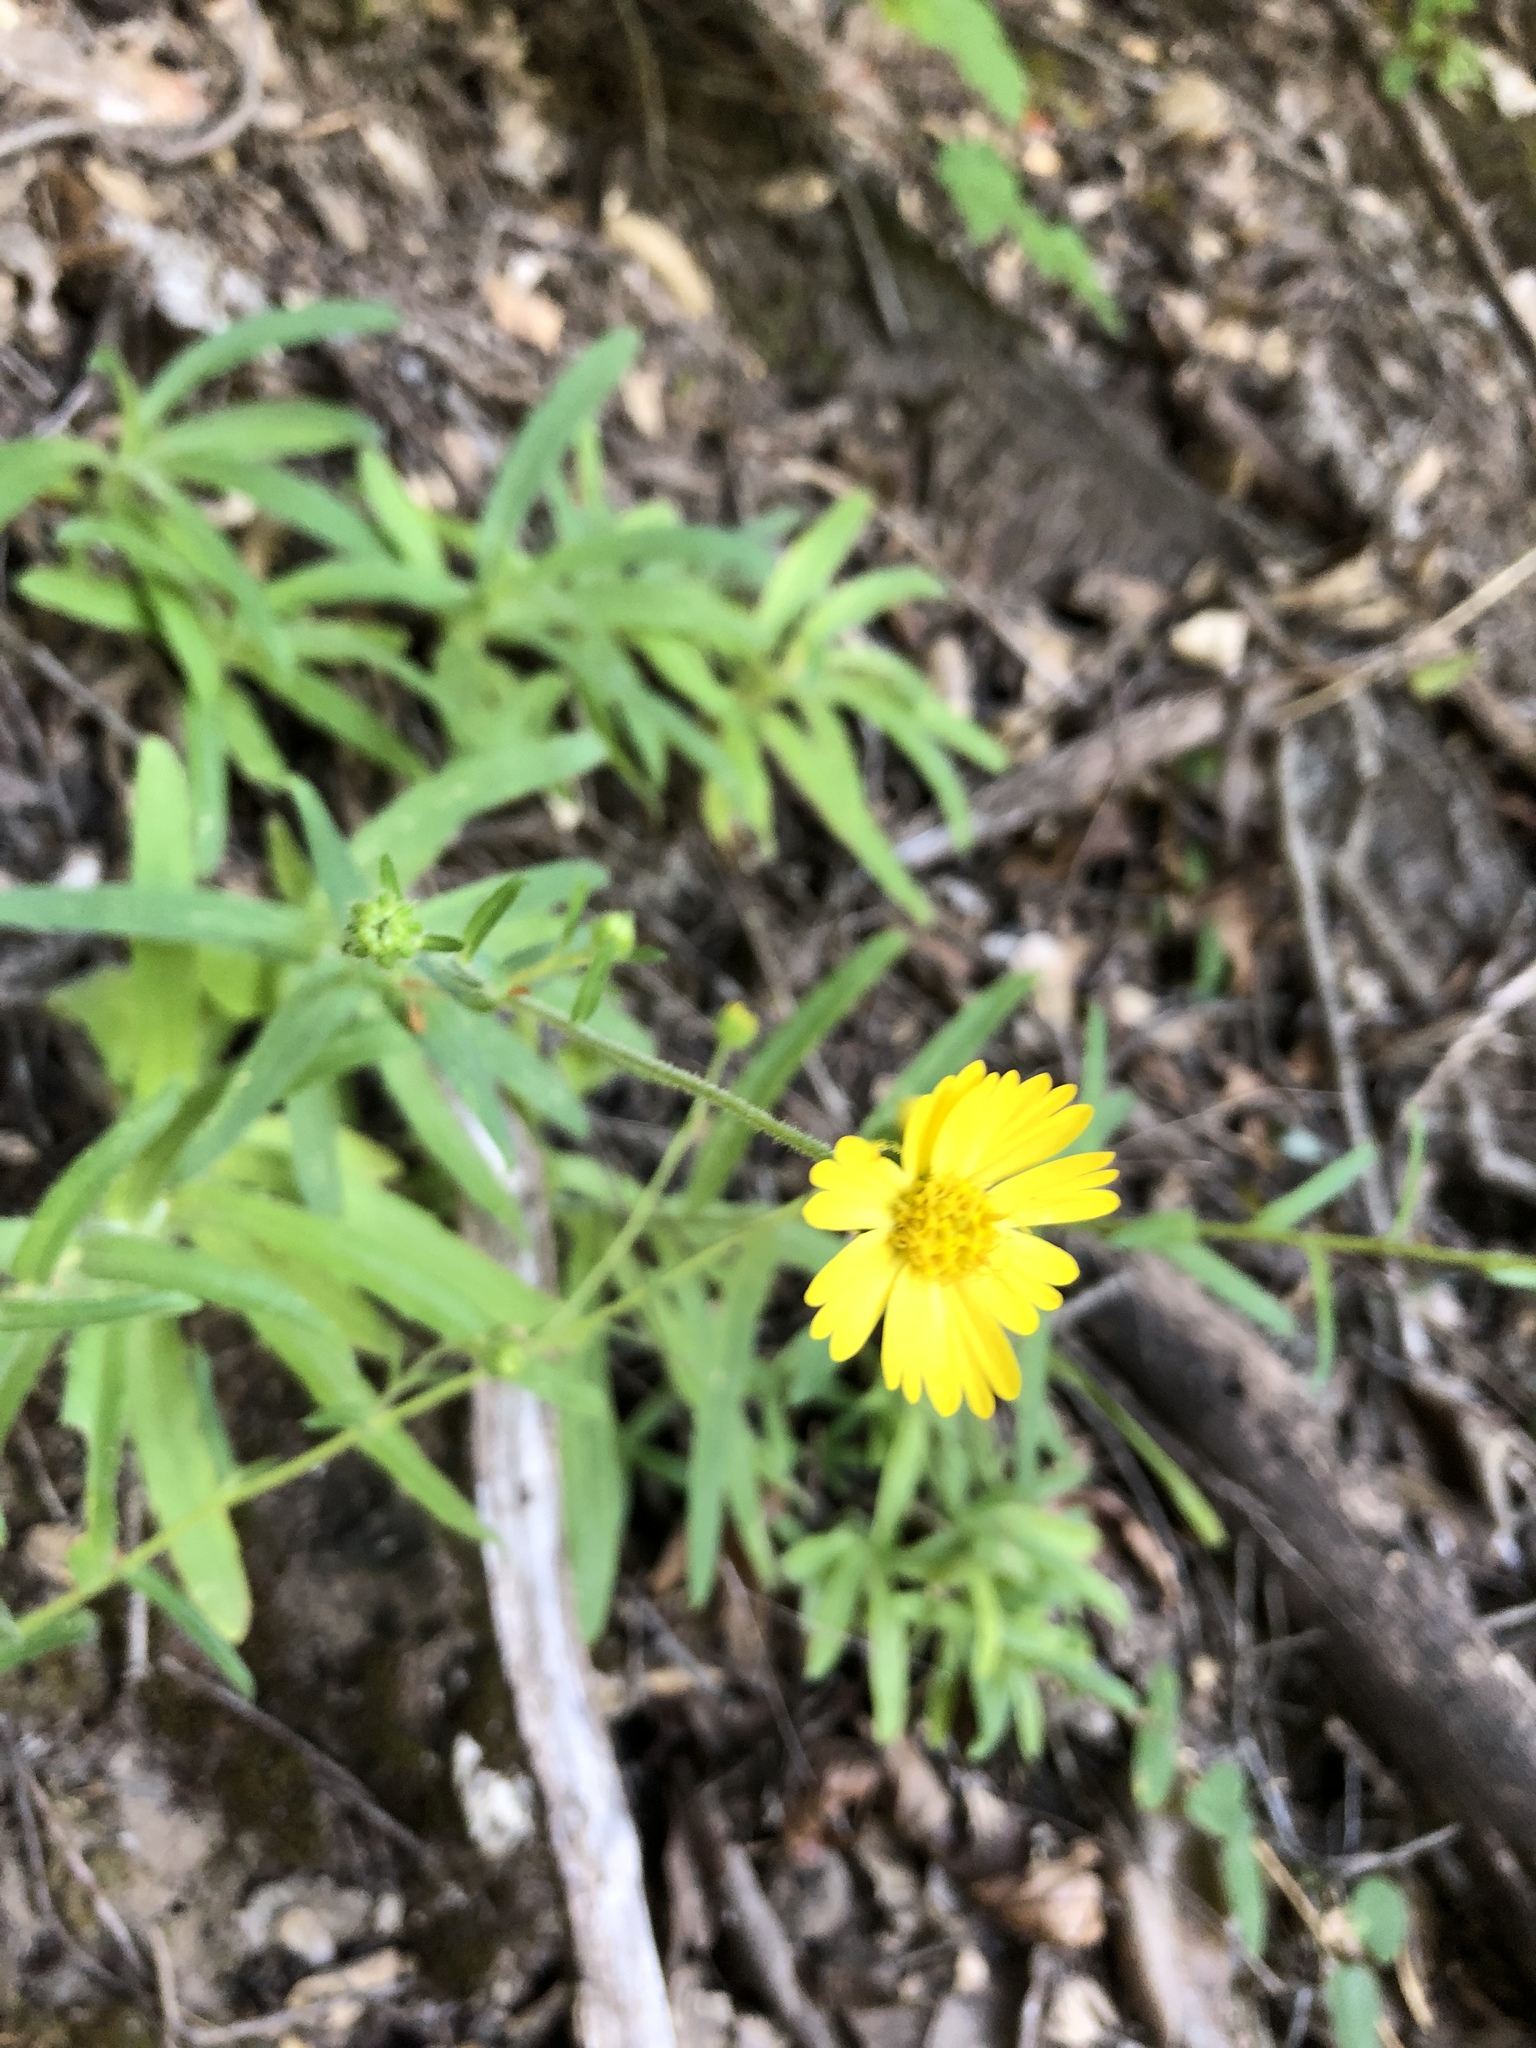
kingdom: Plantae
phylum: Tracheophyta
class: Magnoliopsida
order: Asterales
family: Asteraceae
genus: Anisocarpus
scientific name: Anisocarpus madioides
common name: Woodland madia
